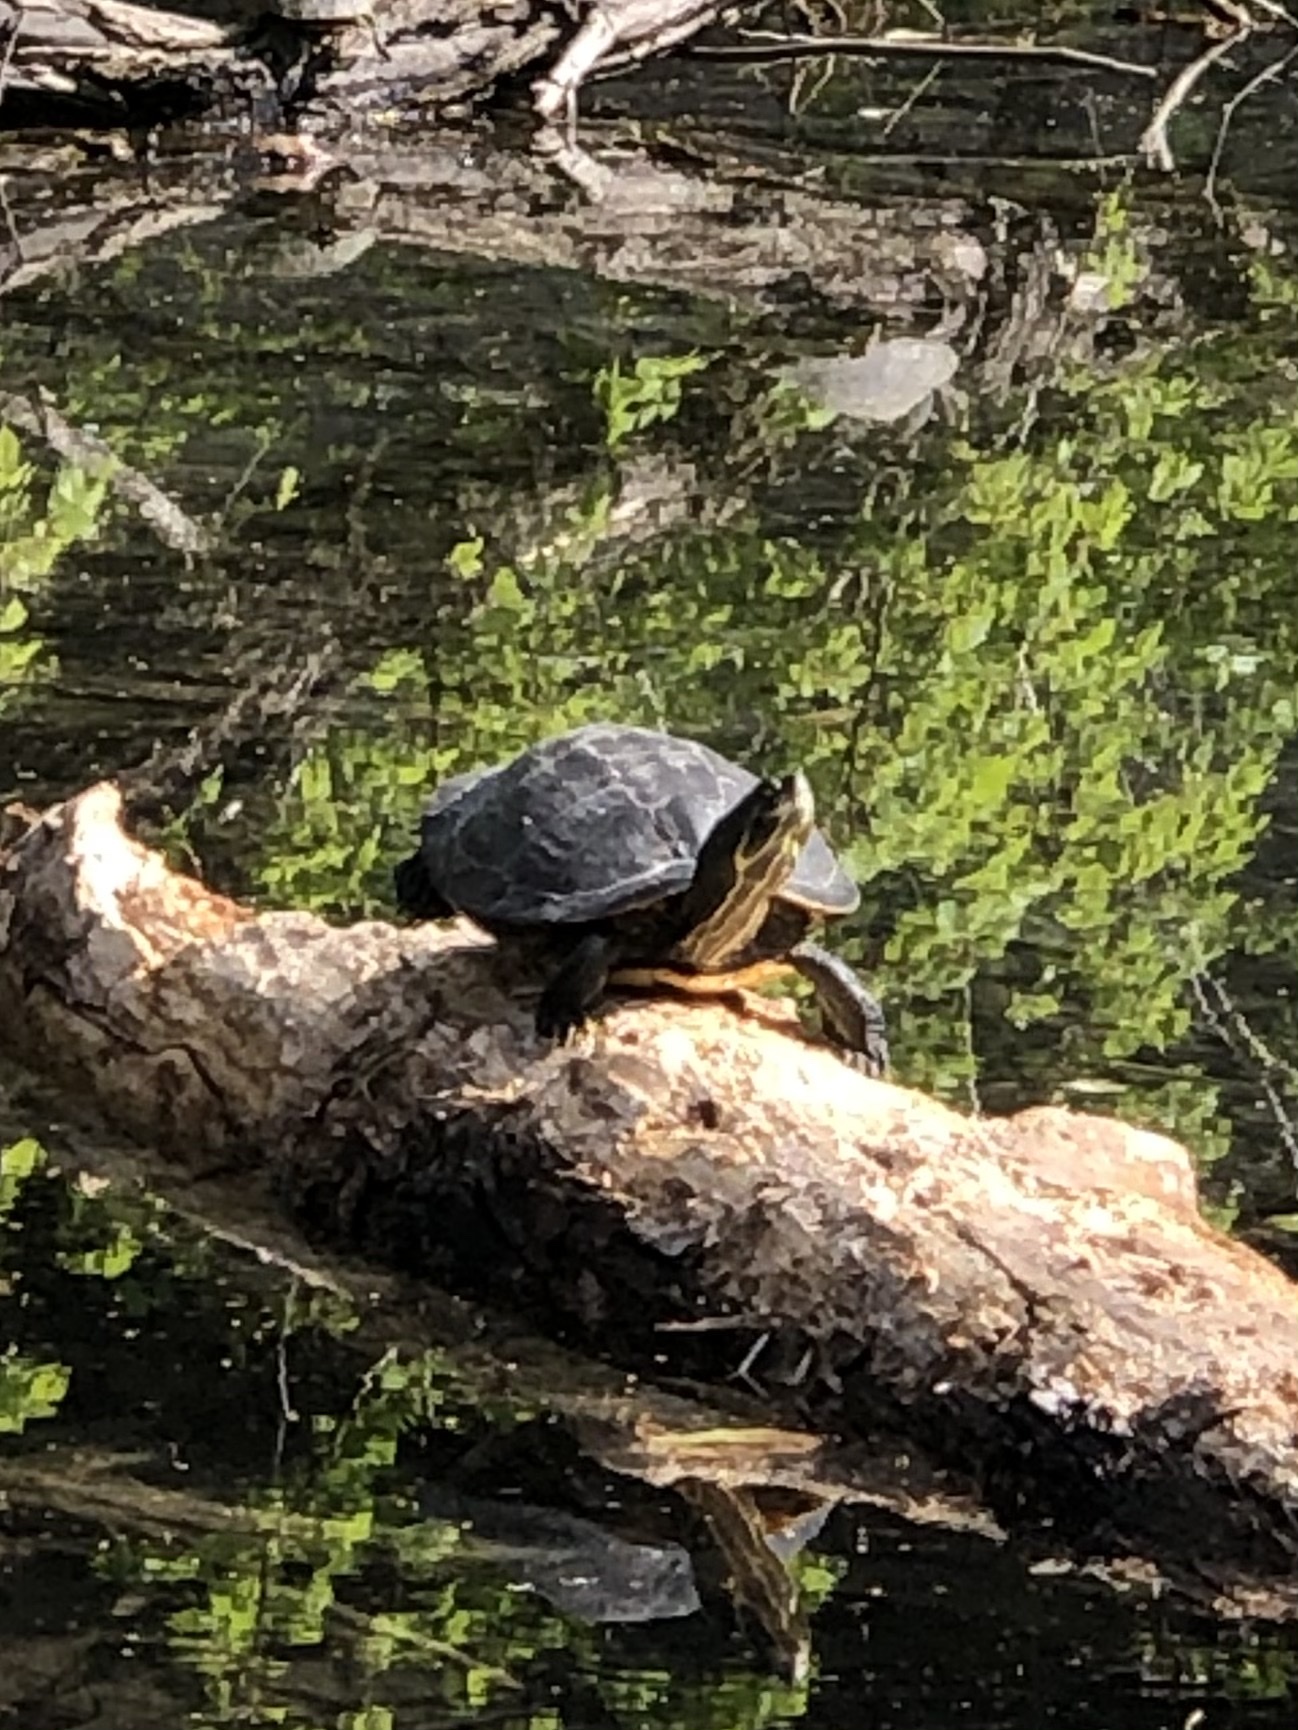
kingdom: Animalia
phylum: Chordata
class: Testudines
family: Emydidae
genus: Trachemys
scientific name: Trachemys scripta
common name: Slider
